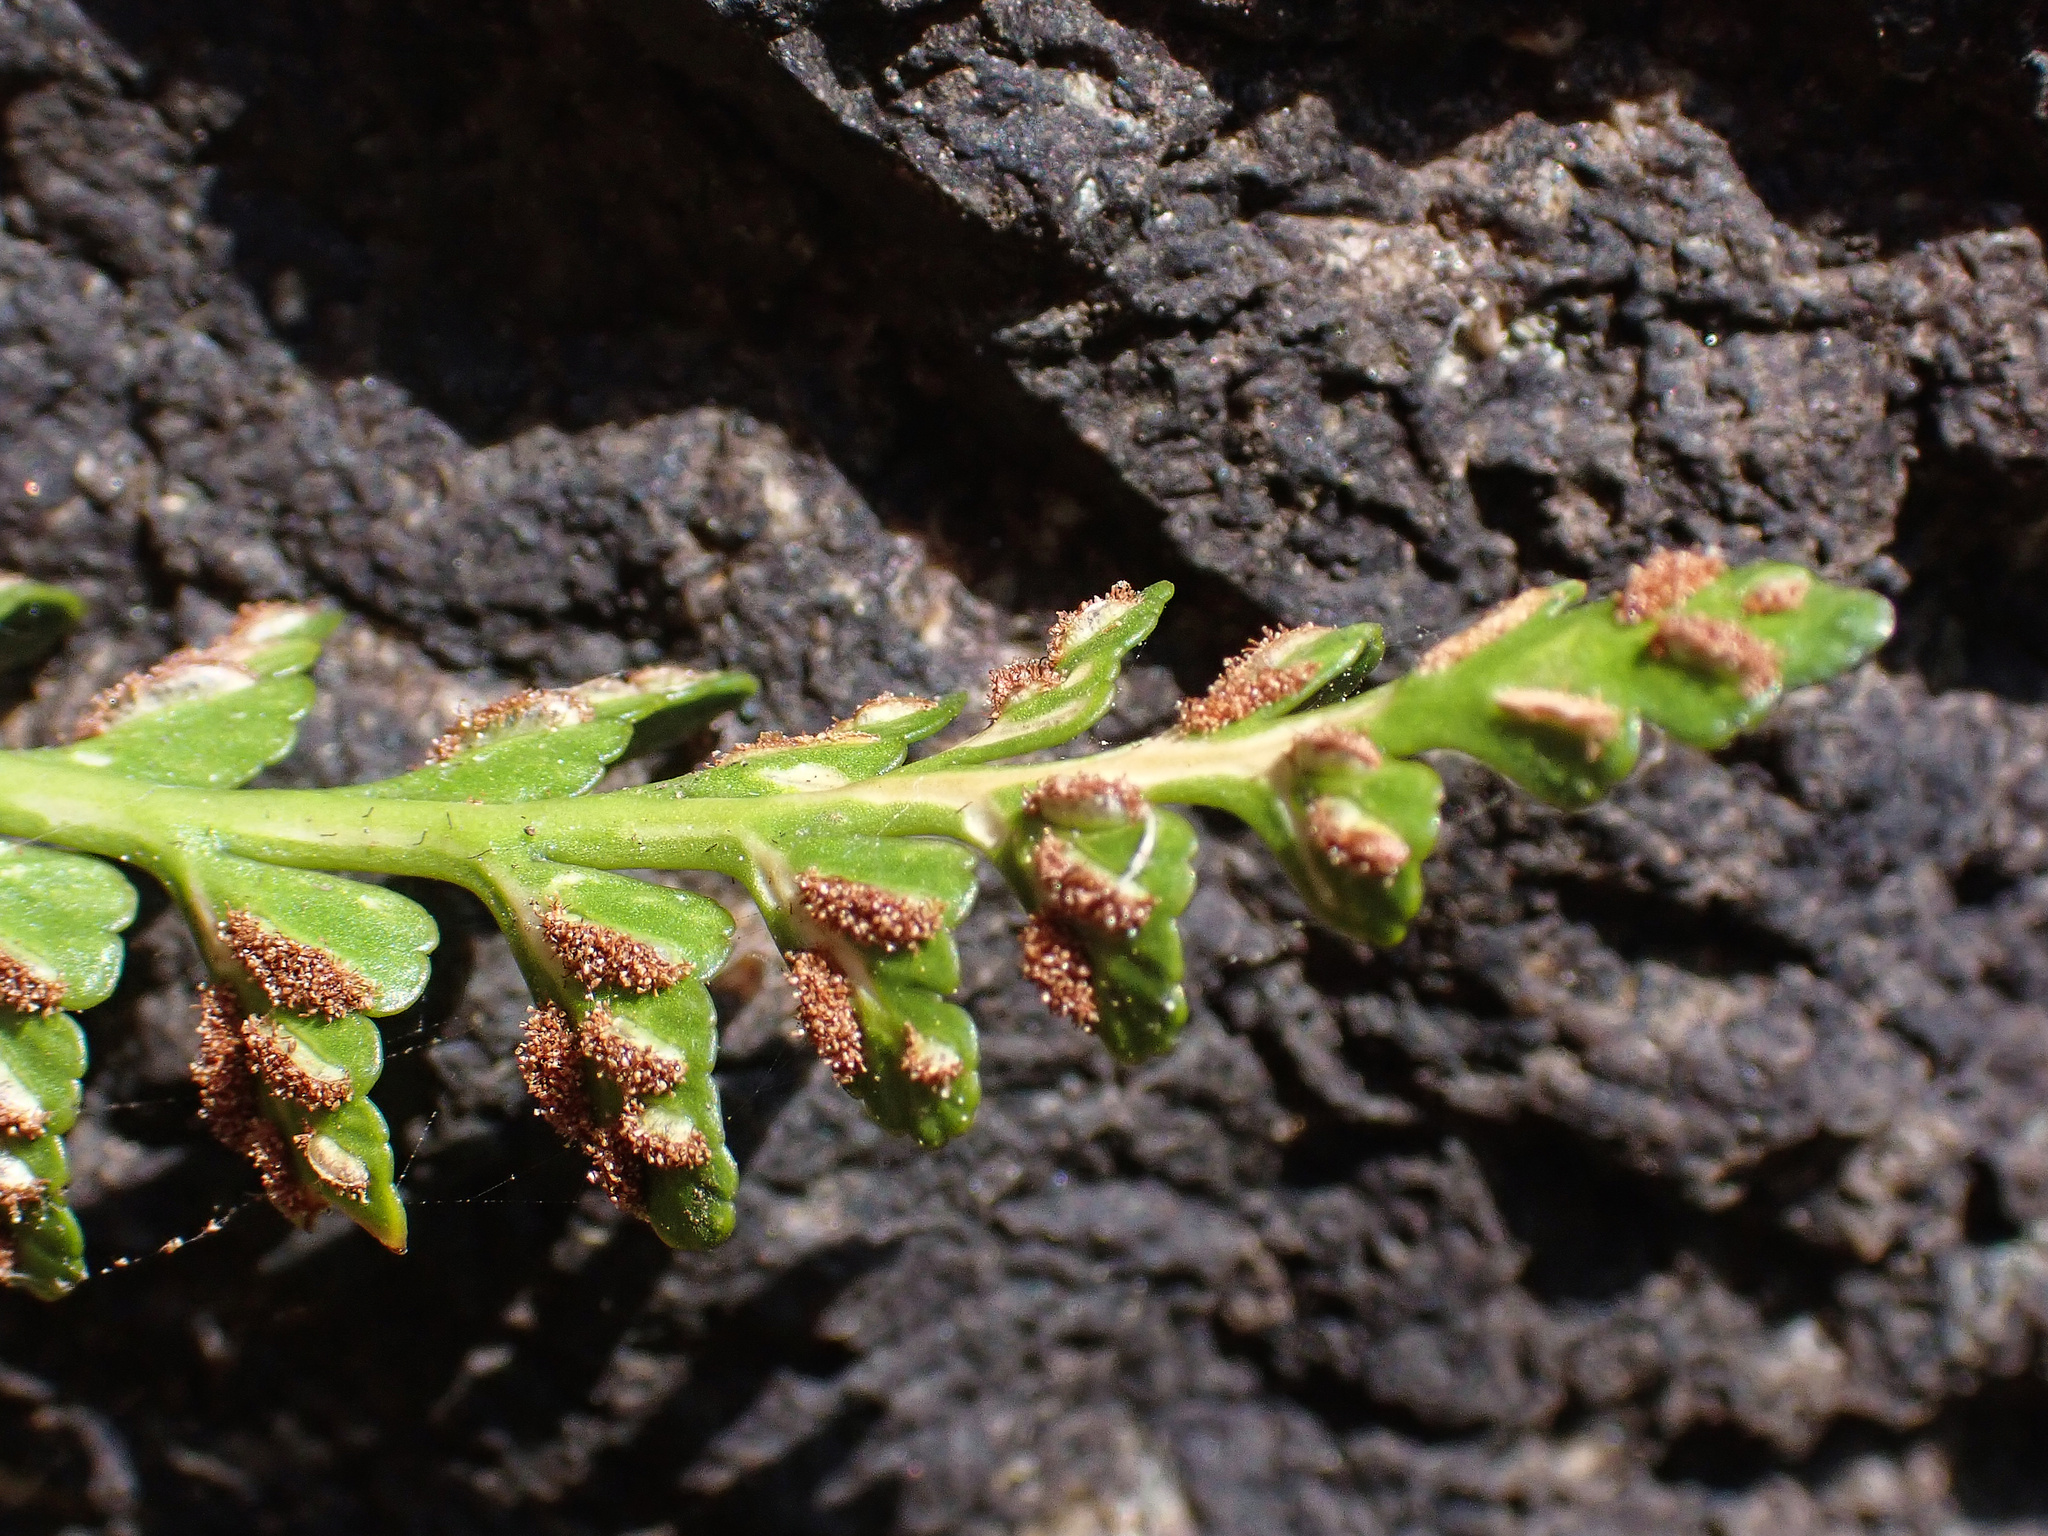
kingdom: Plantae
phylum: Tracheophyta
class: Polypodiopsida
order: Polypodiales
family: Aspleniaceae
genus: Asplenium
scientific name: Asplenium marinum
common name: Sea spleenwort
